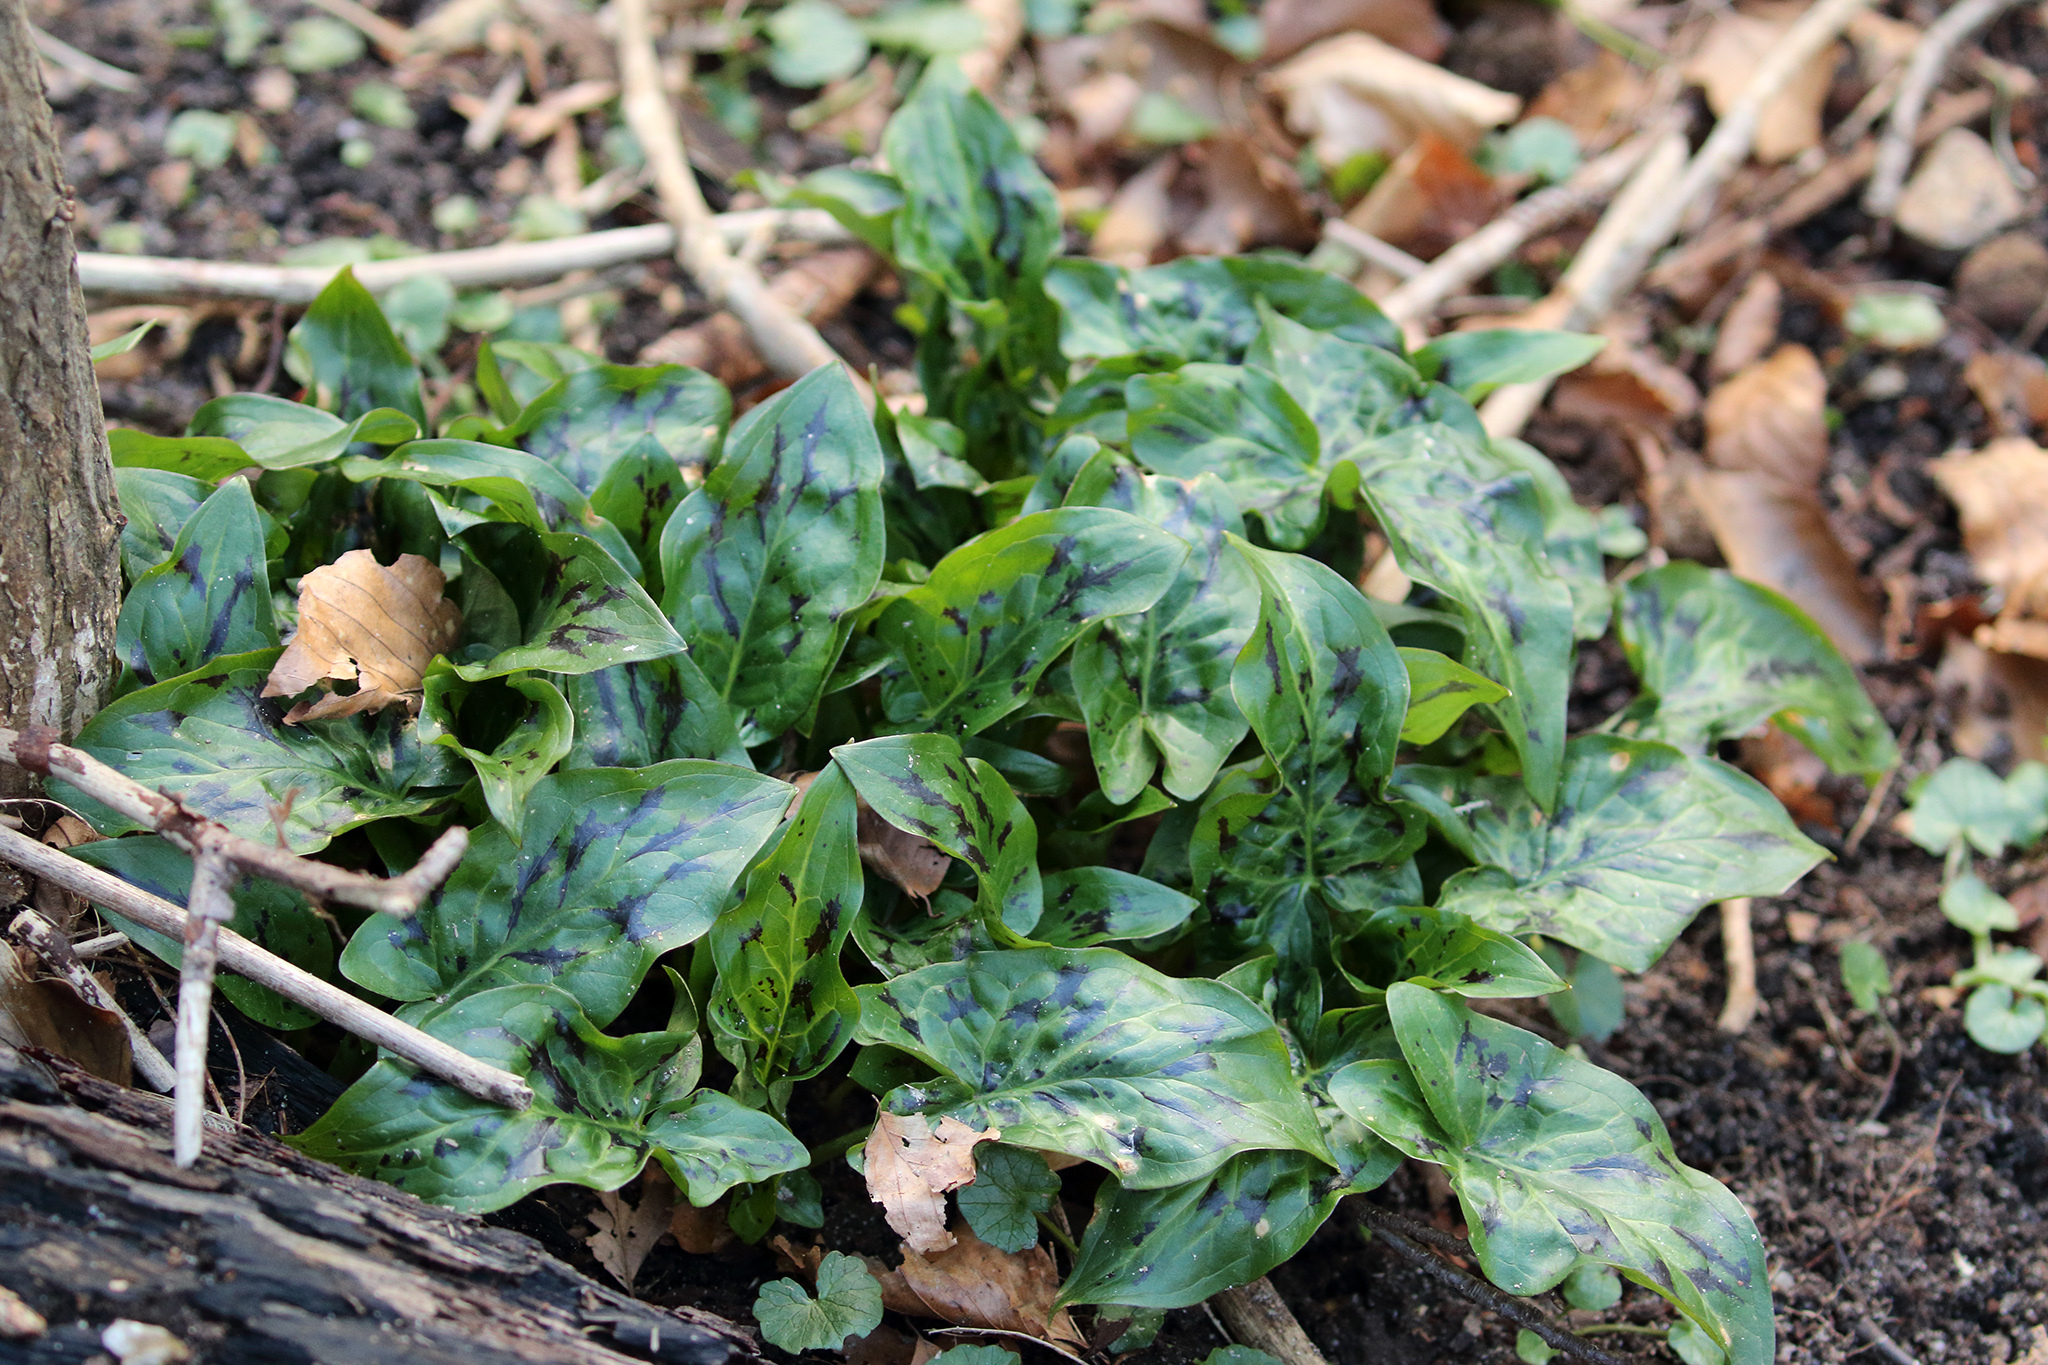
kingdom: Plantae
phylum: Tracheophyta
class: Liliopsida
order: Alismatales
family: Araceae
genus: Arum
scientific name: Arum maculatum
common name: Lords-and-ladies
